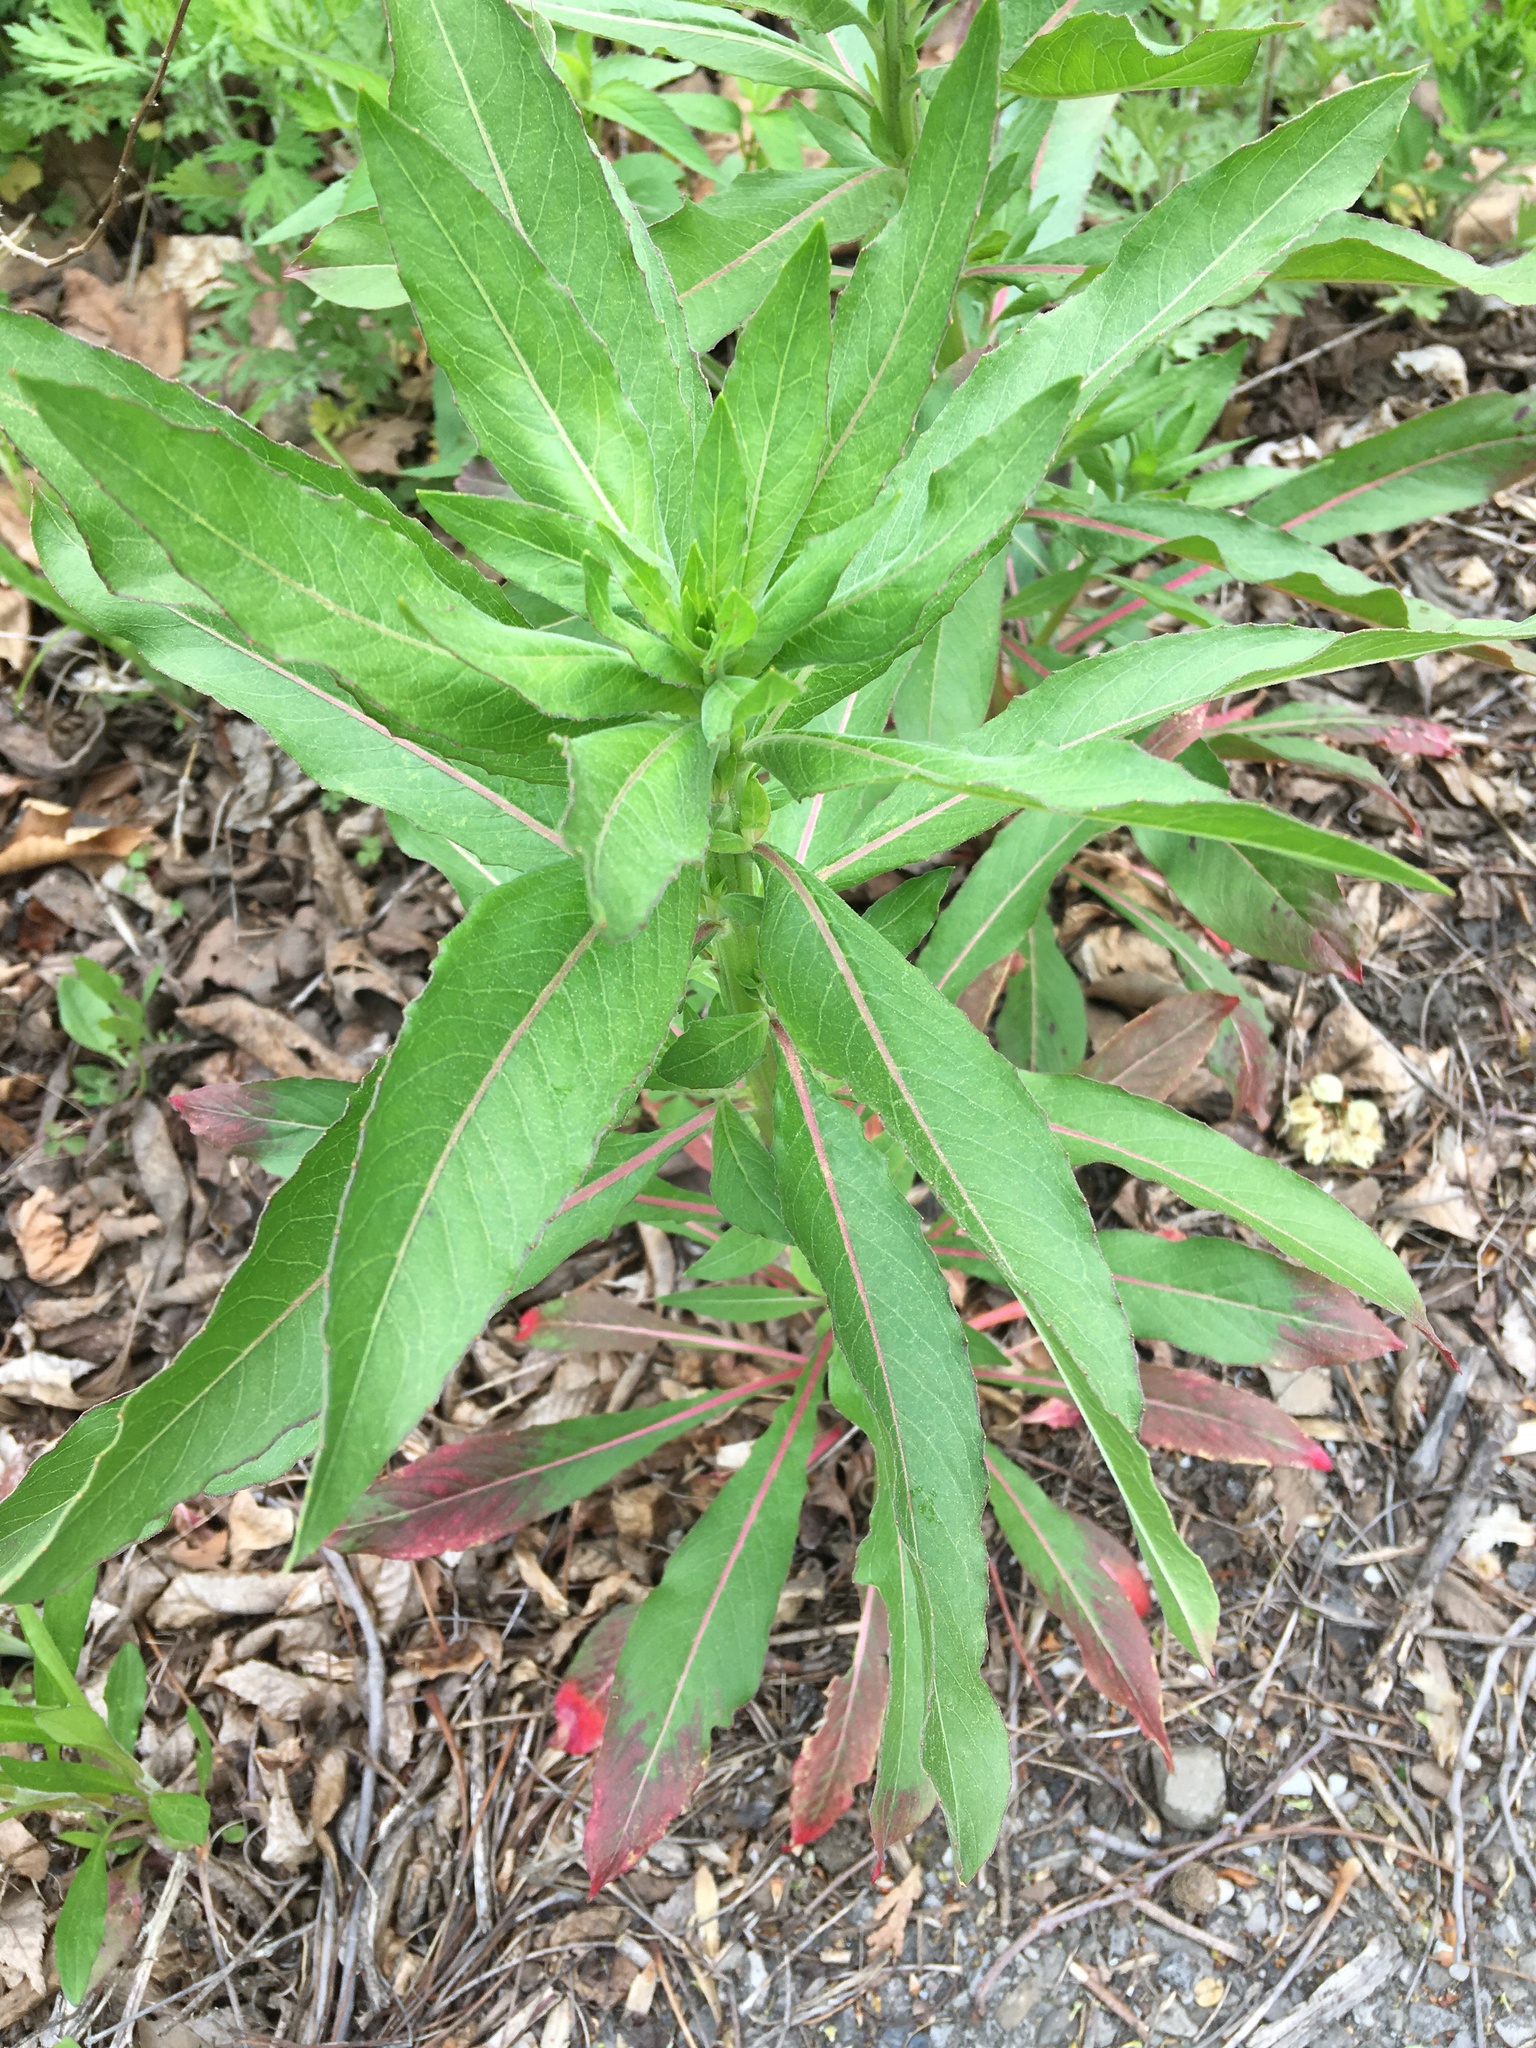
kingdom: Plantae
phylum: Tracheophyta
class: Magnoliopsida
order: Myrtales
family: Onagraceae
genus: Oenothera
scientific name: Oenothera biennis
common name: Common evening-primrose
